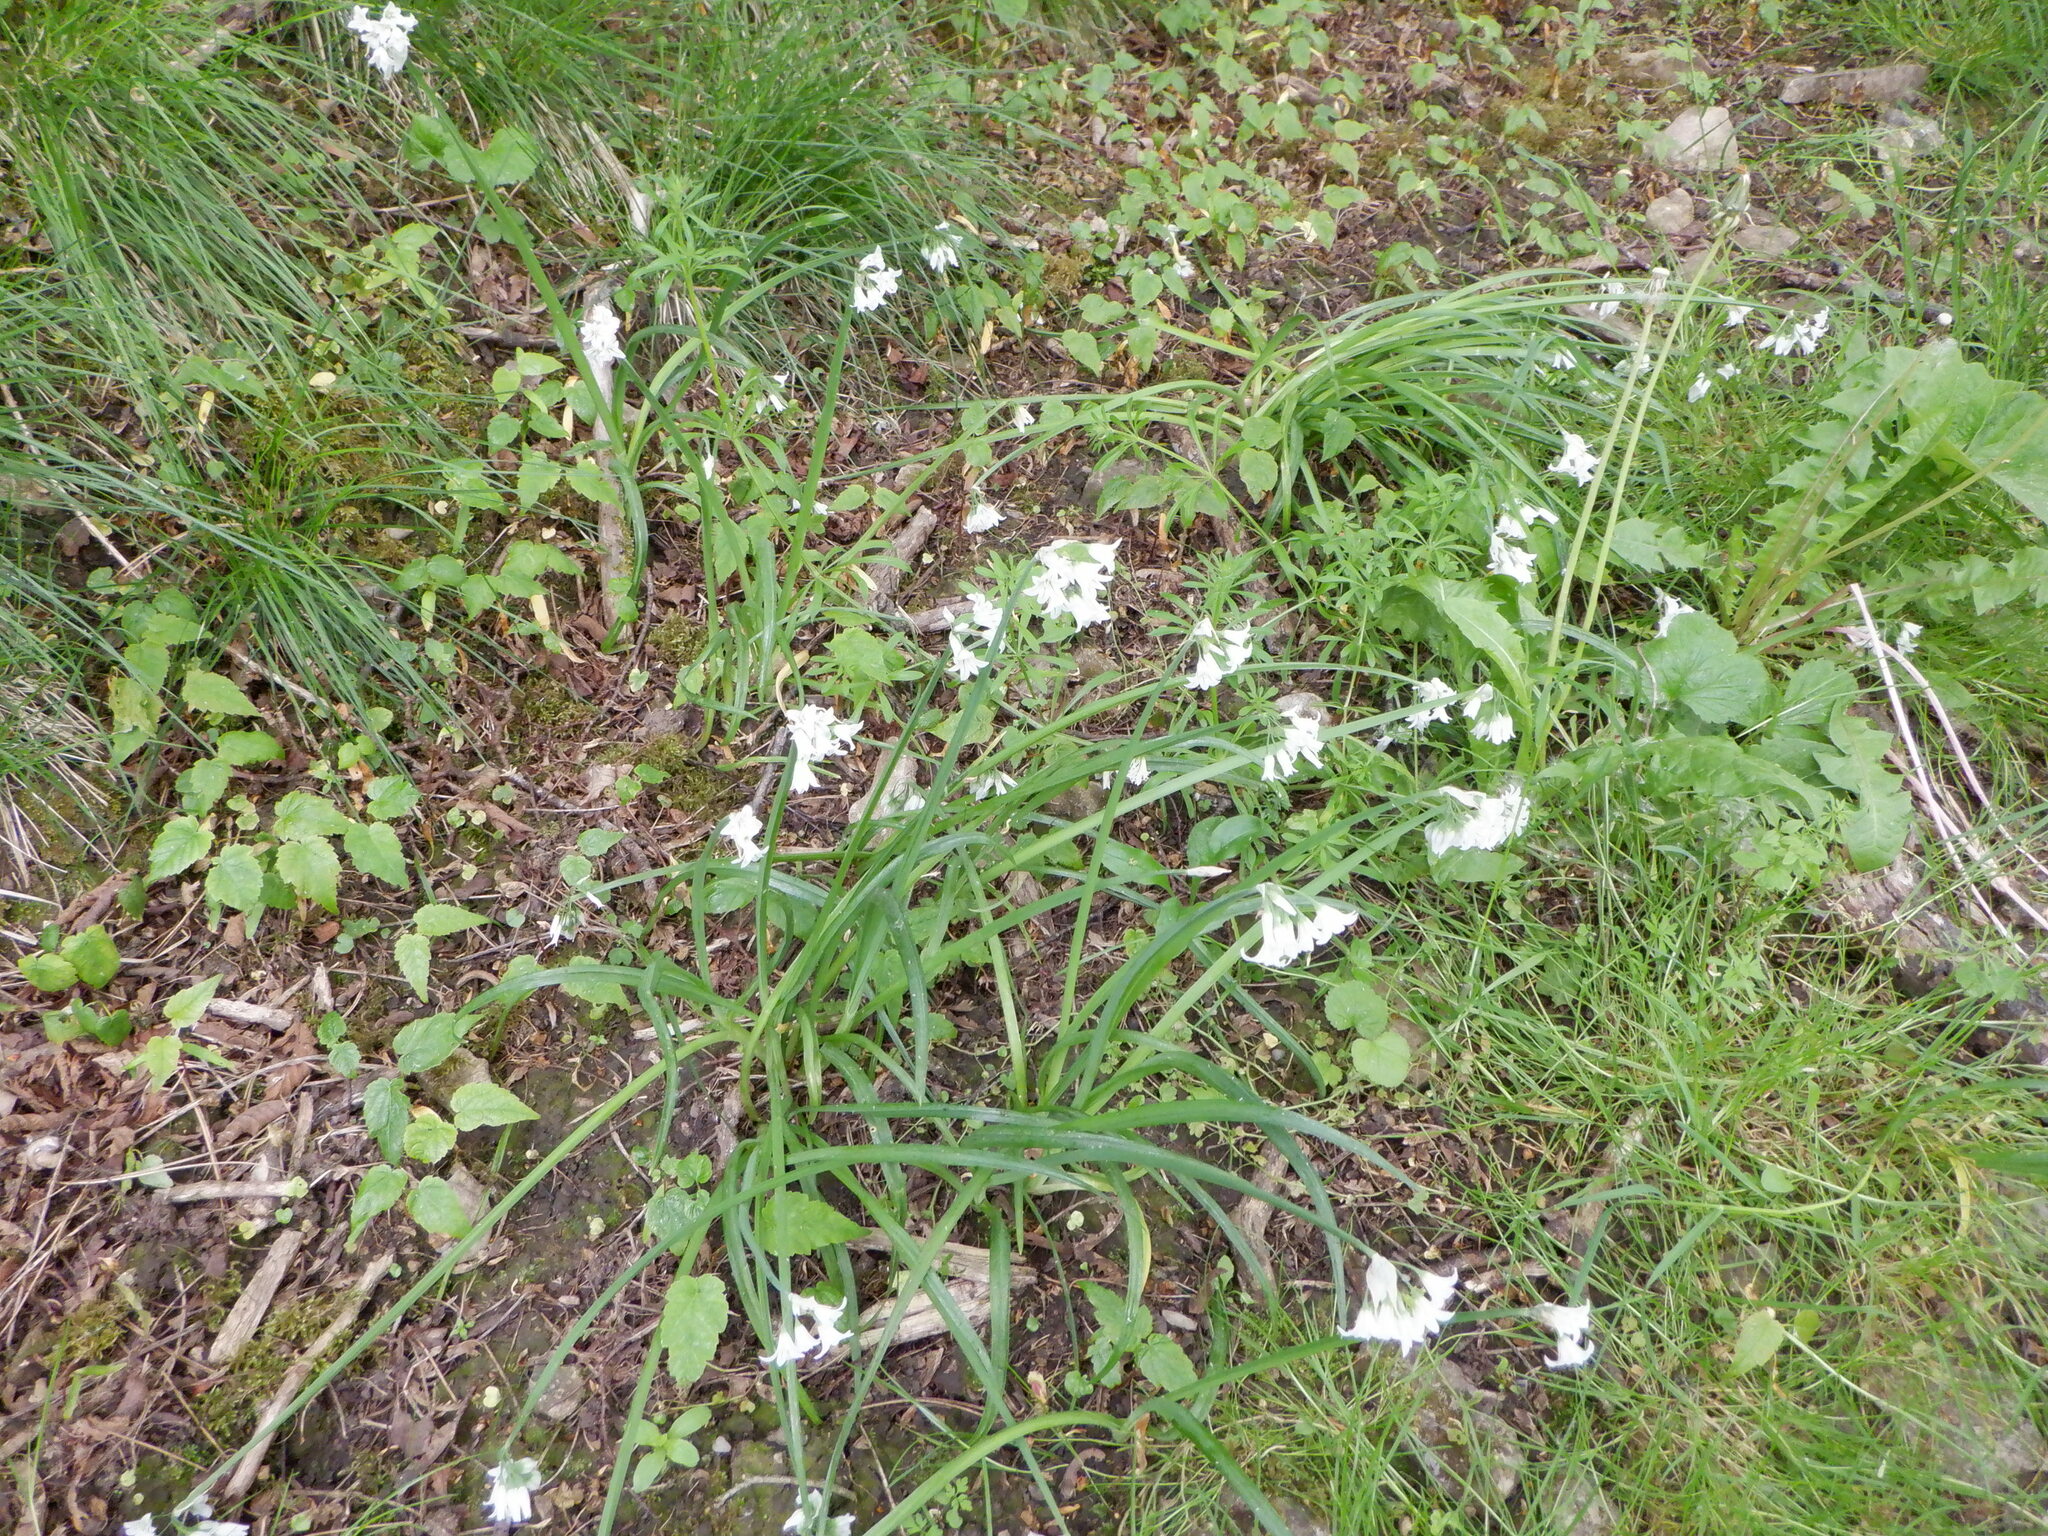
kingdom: Plantae
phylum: Tracheophyta
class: Liliopsida
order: Asparagales
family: Amaryllidaceae
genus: Allium
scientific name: Allium triquetrum
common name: Three-cornered garlic
